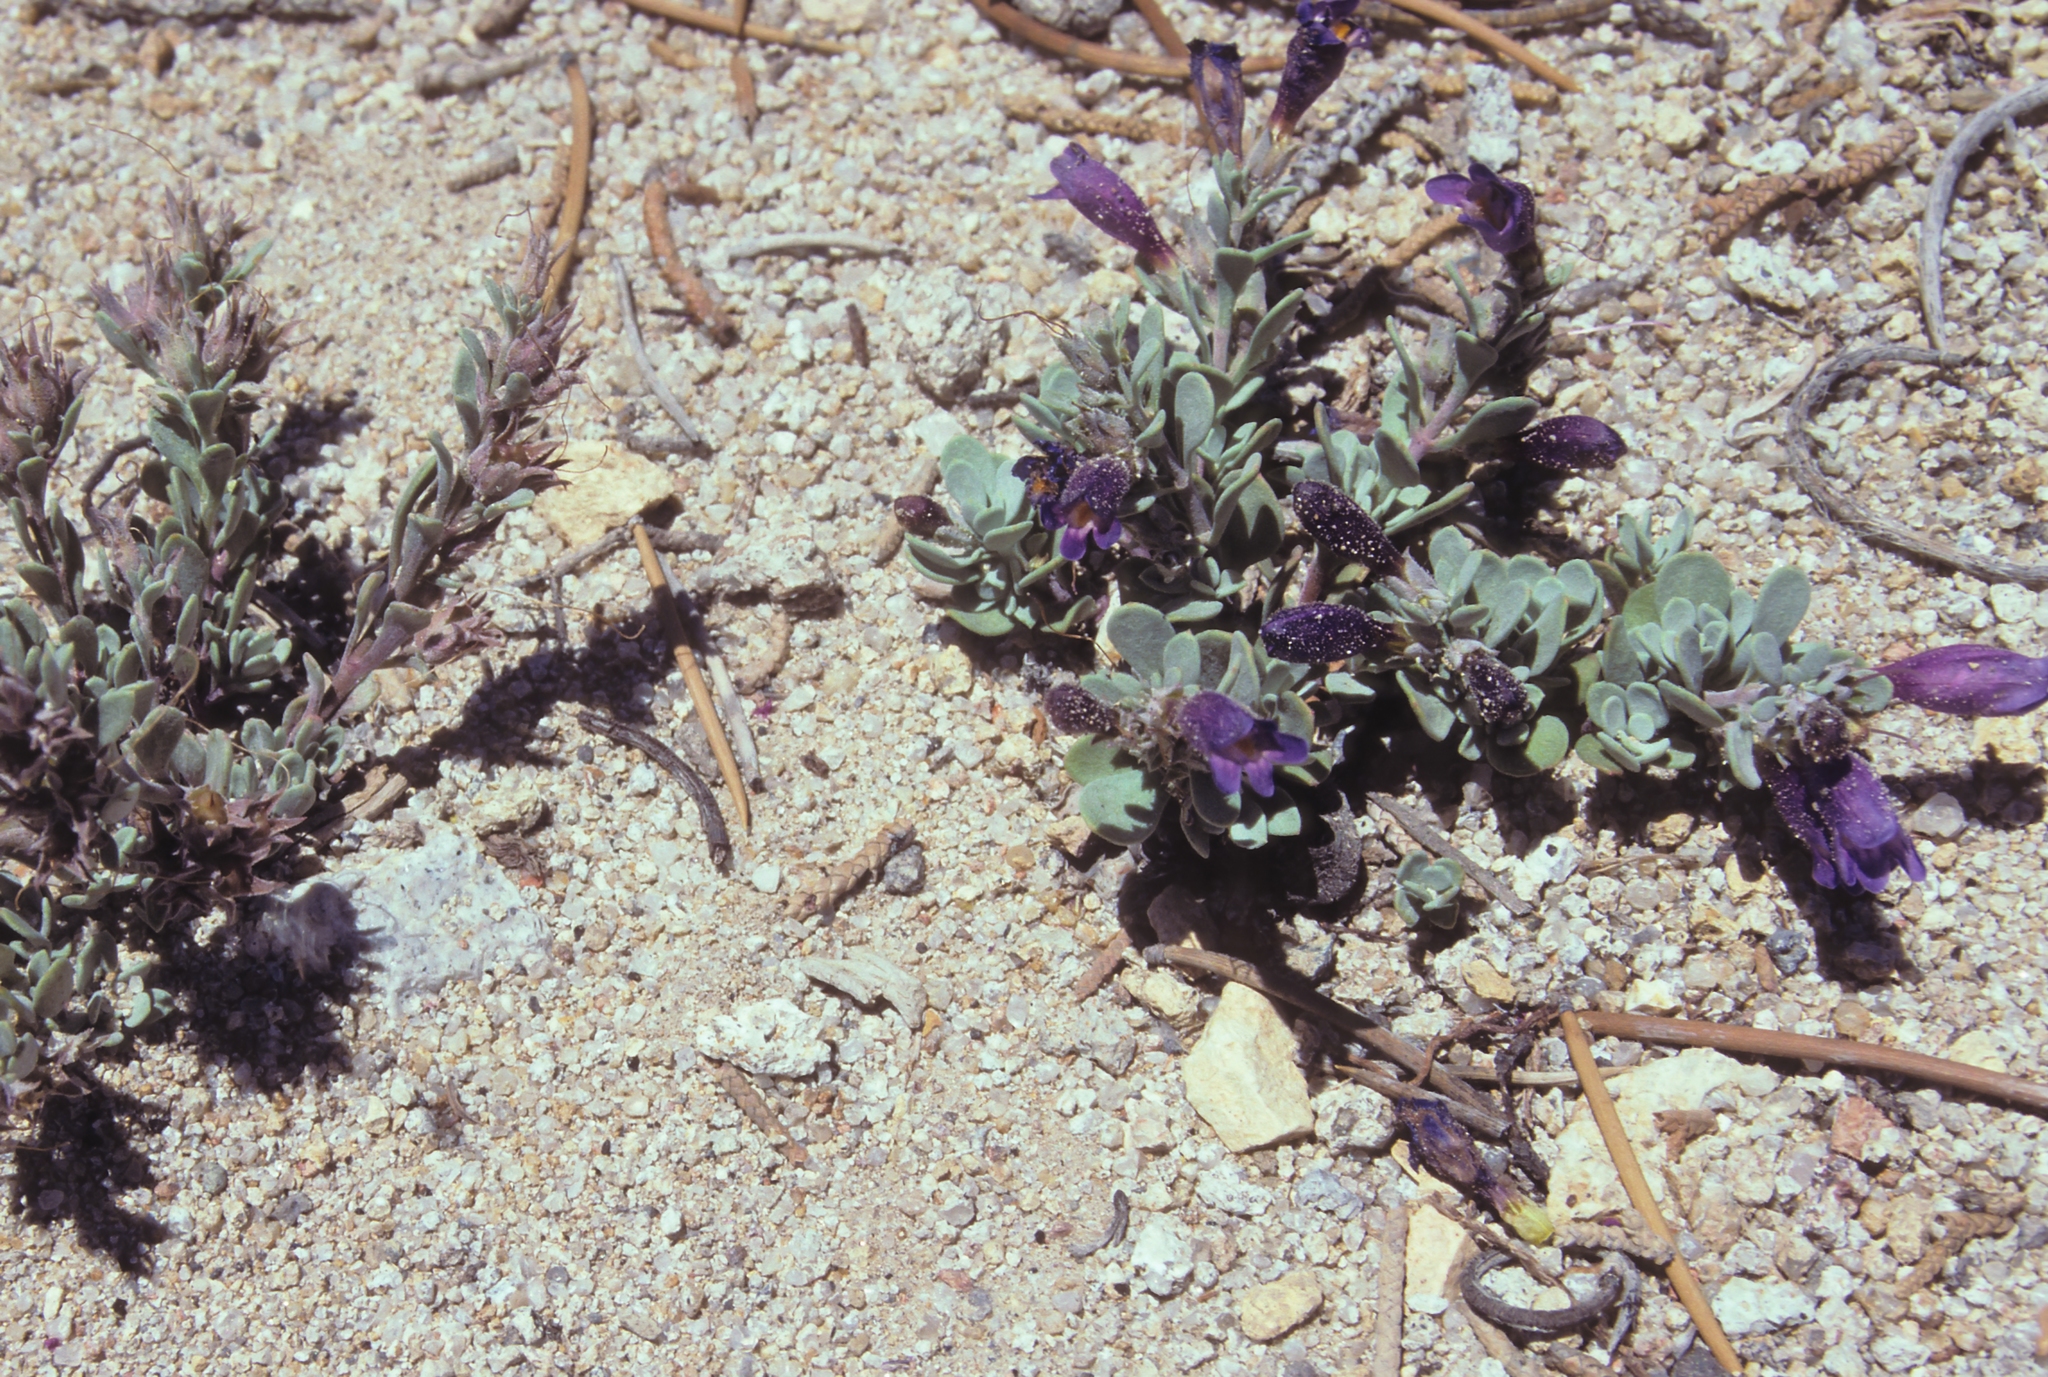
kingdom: Plantae
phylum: Tracheophyta
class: Magnoliopsida
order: Lamiales
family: Plantaginaceae
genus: Penstemon
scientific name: Penstemon thompsoniae
